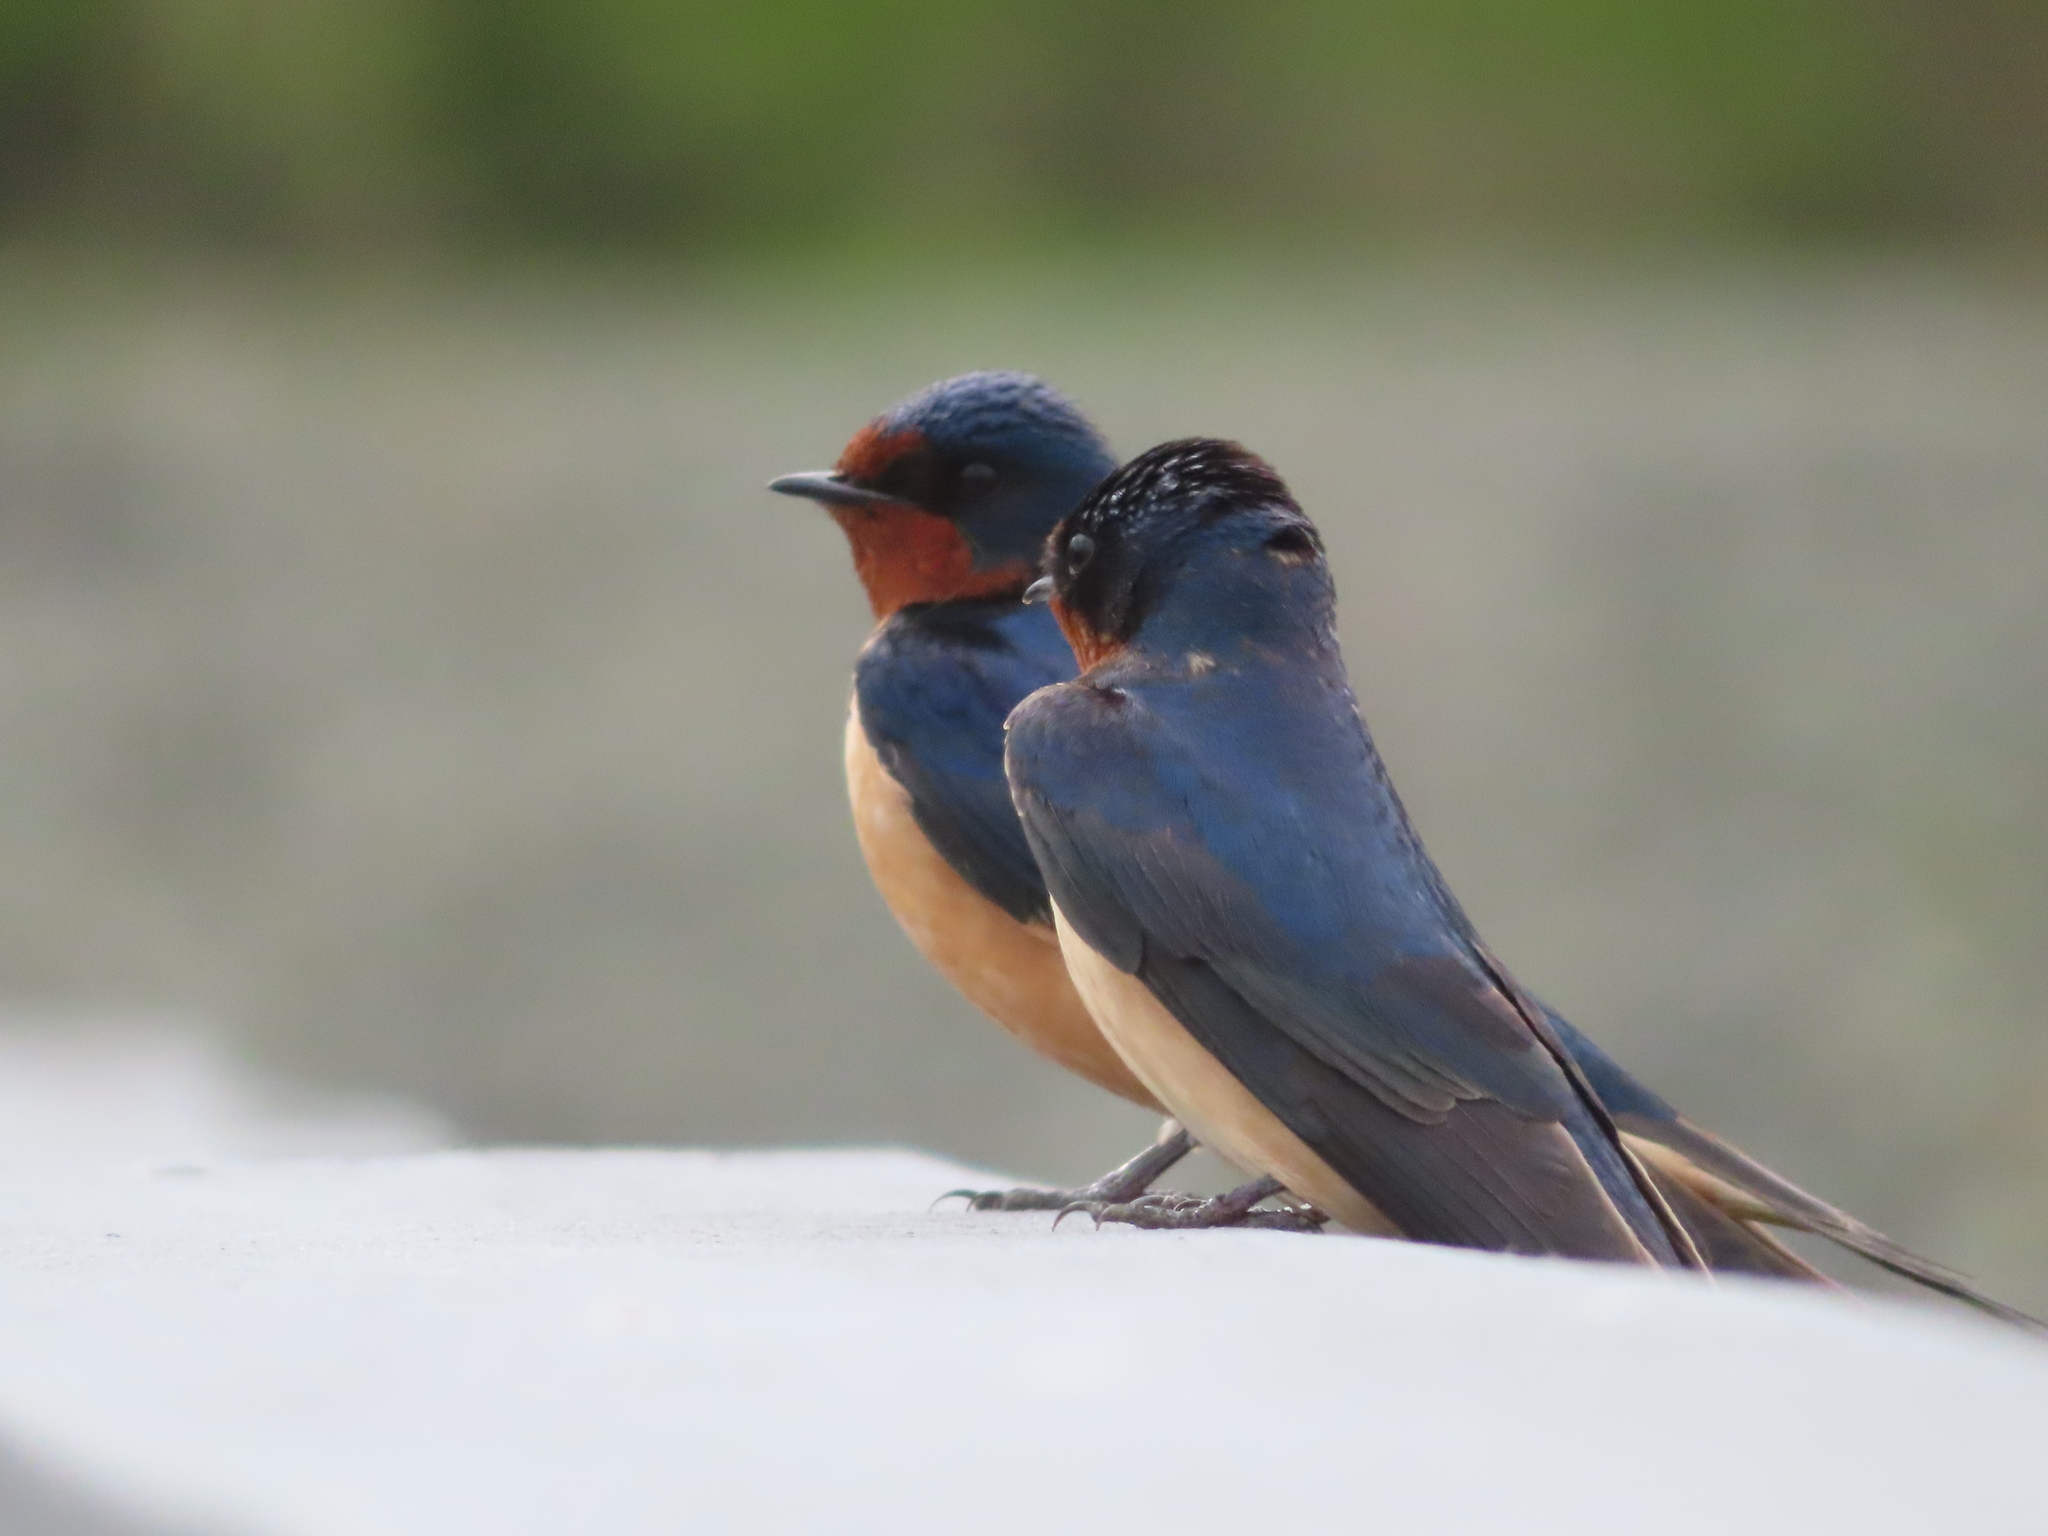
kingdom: Animalia
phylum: Chordata
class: Aves
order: Passeriformes
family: Hirundinidae
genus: Hirundo
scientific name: Hirundo rustica
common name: Barn swallow
